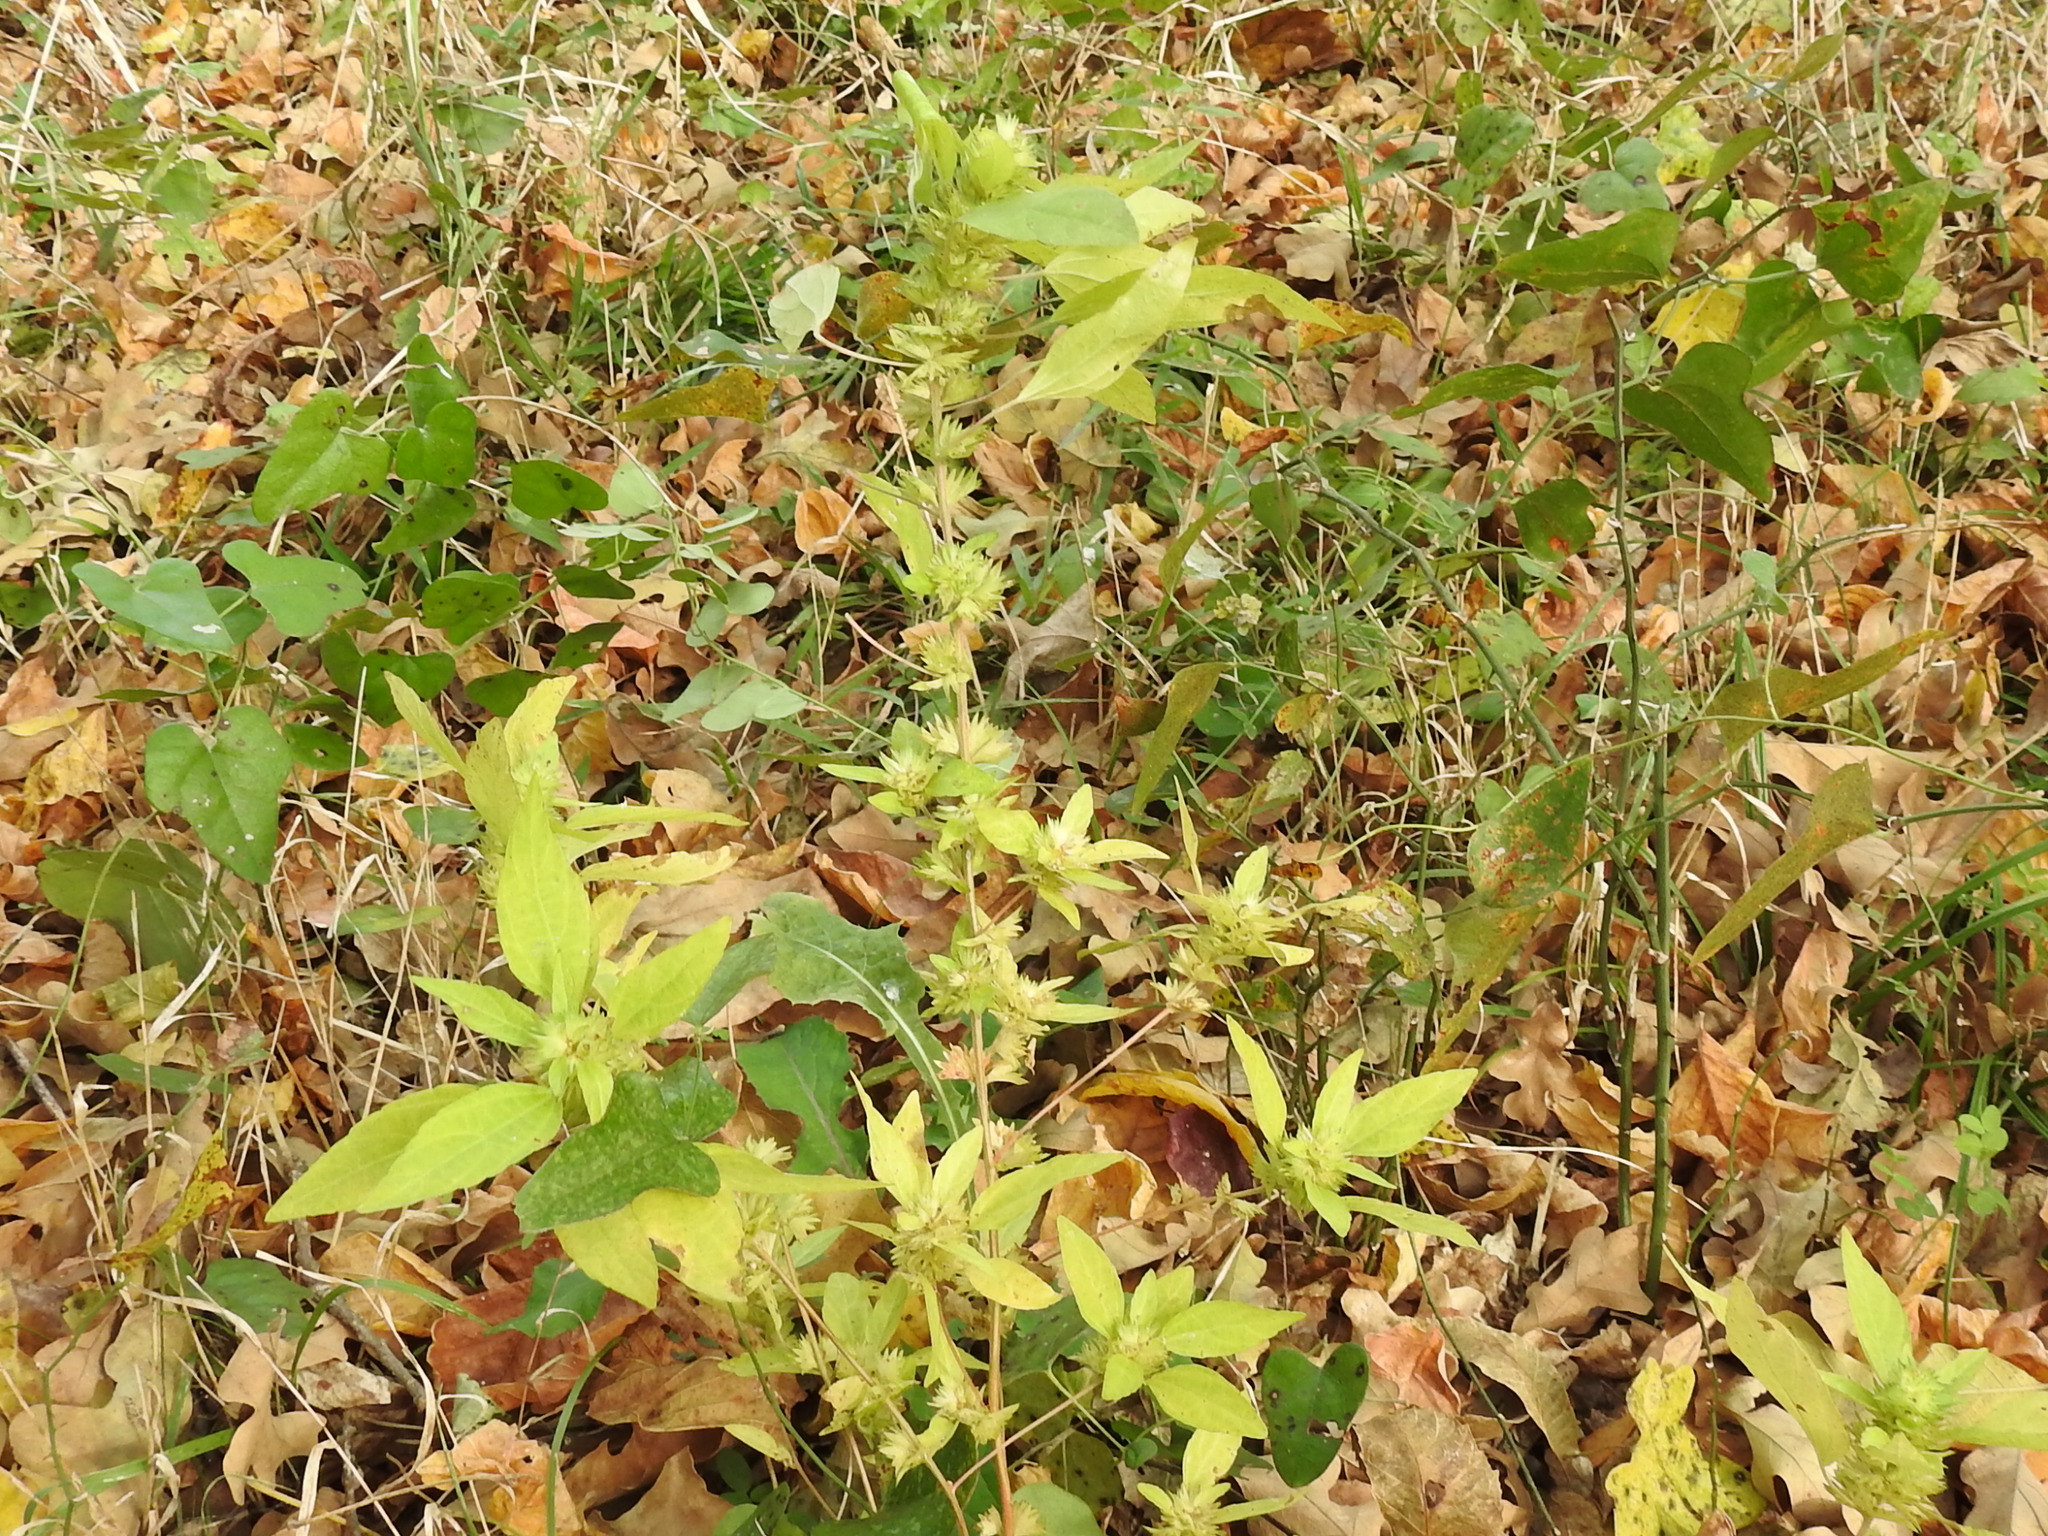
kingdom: Plantae
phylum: Tracheophyta
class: Magnoliopsida
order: Malpighiales
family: Euphorbiaceae
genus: Acalypha
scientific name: Acalypha virginica
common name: Virginia copperleaf
